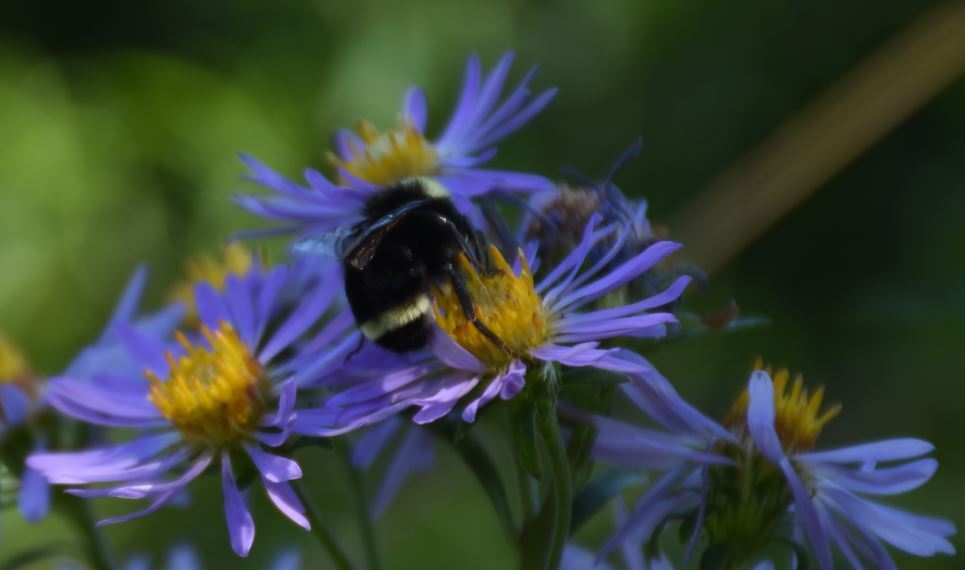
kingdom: Animalia
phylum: Arthropoda
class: Insecta
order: Hymenoptera
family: Apidae
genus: Bombus
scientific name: Bombus vosnesenskii
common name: Vosnesensky bumble bee
